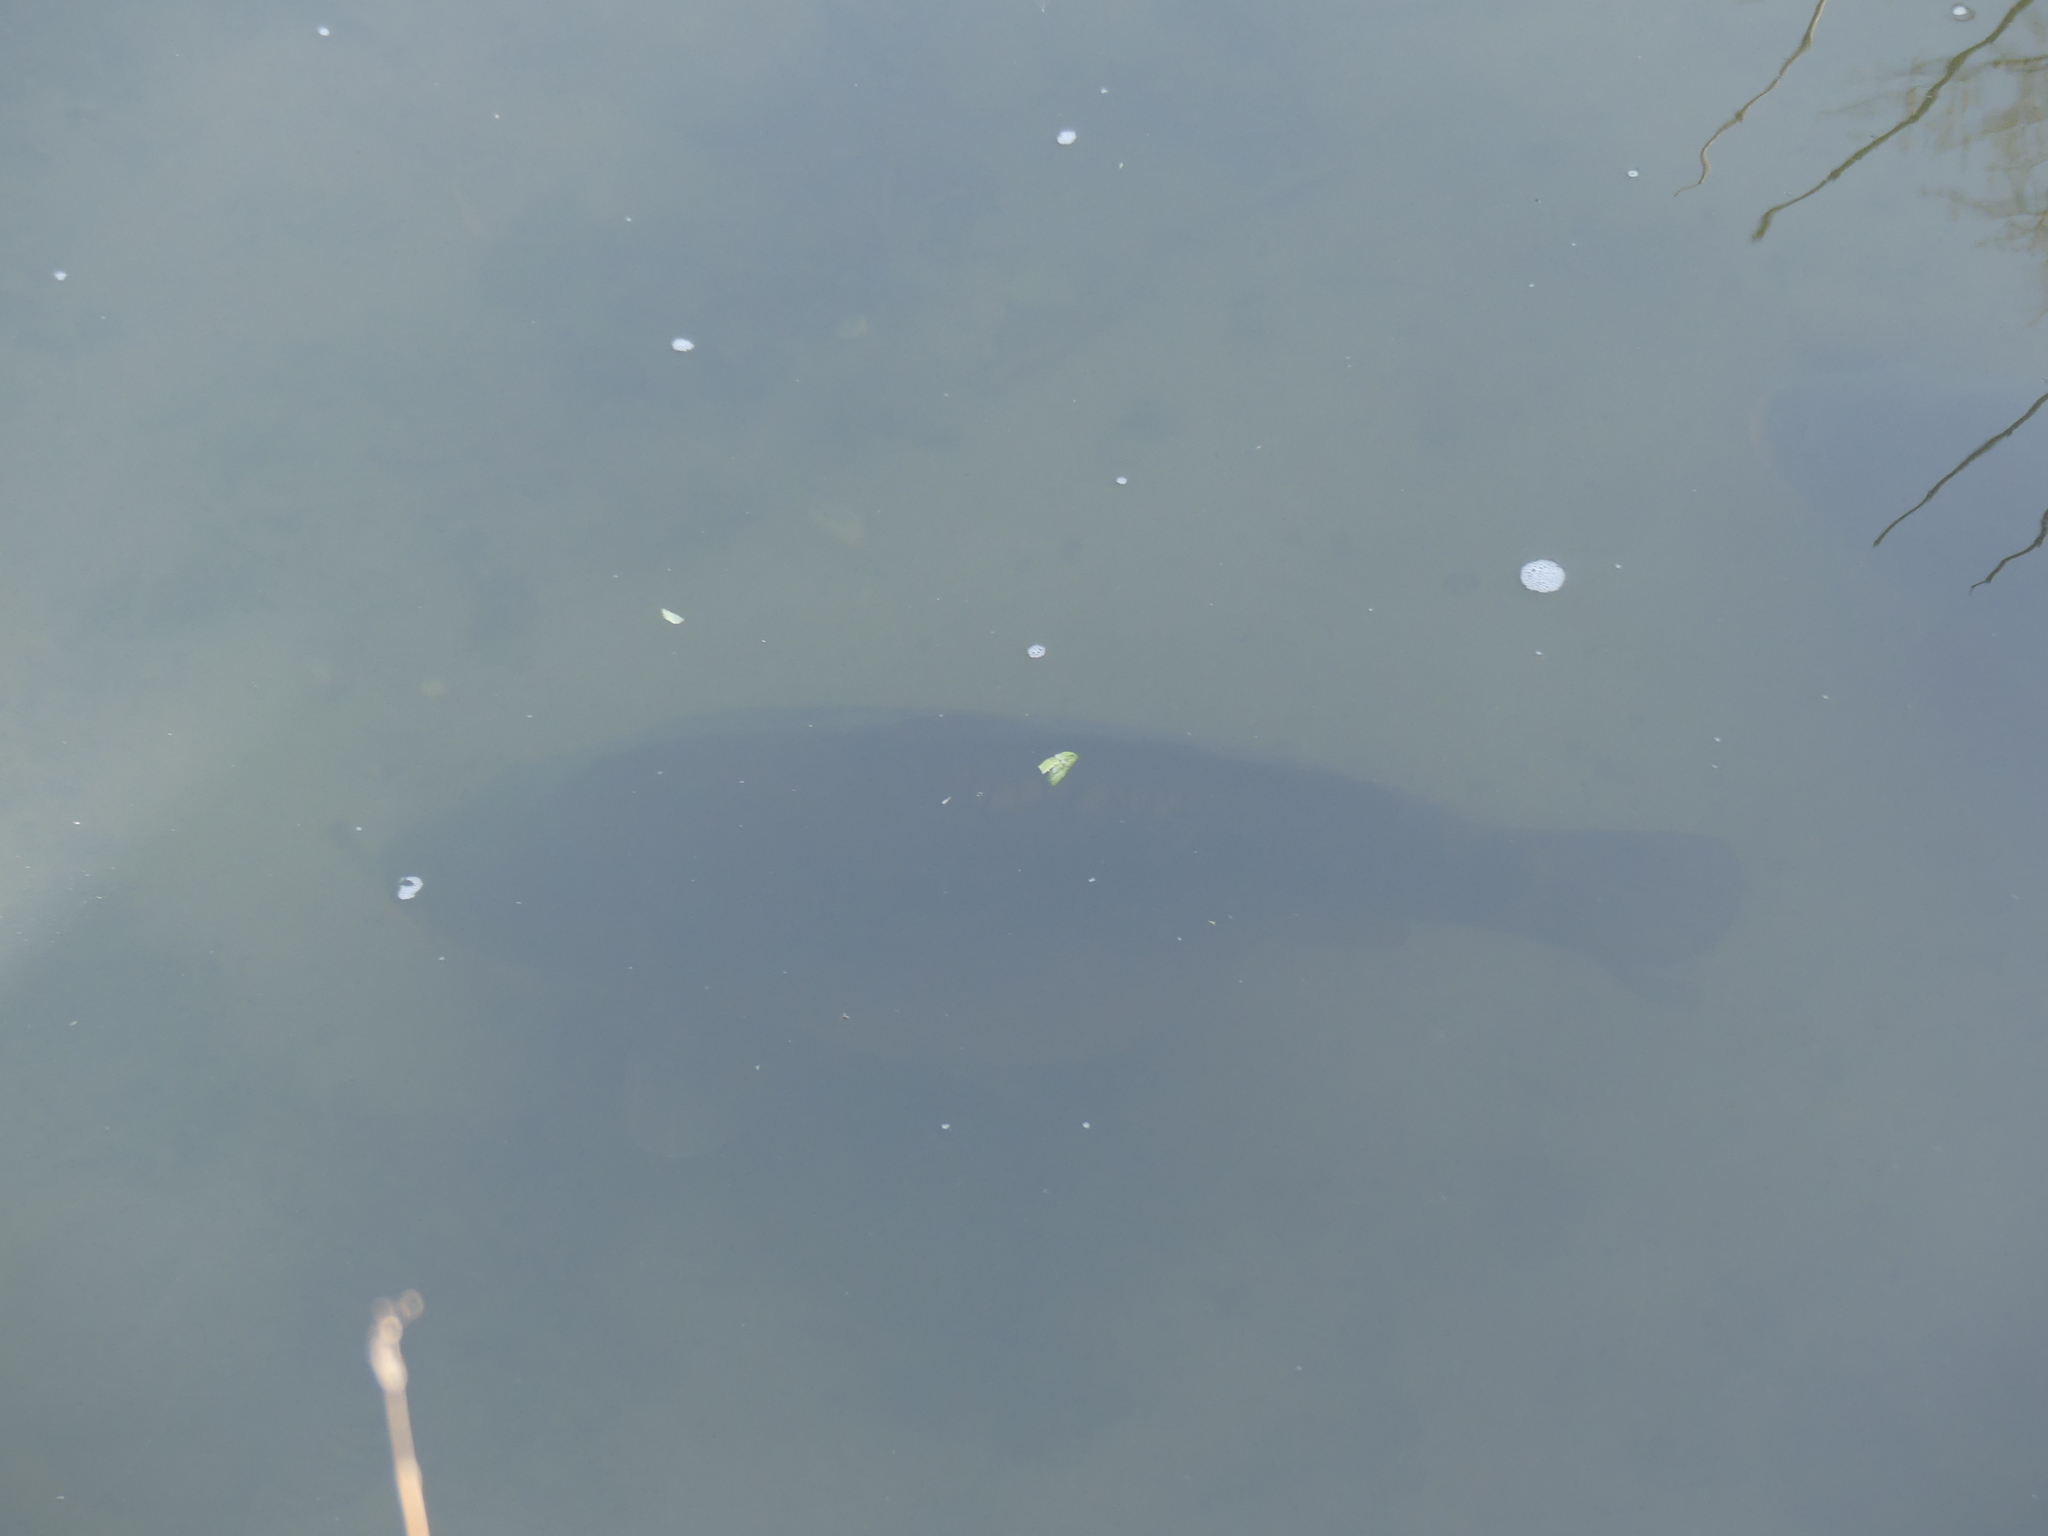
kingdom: Animalia
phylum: Chordata
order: Cypriniformes
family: Cyprinidae
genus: Cyprinus
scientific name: Cyprinus carpio
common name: Common carp
